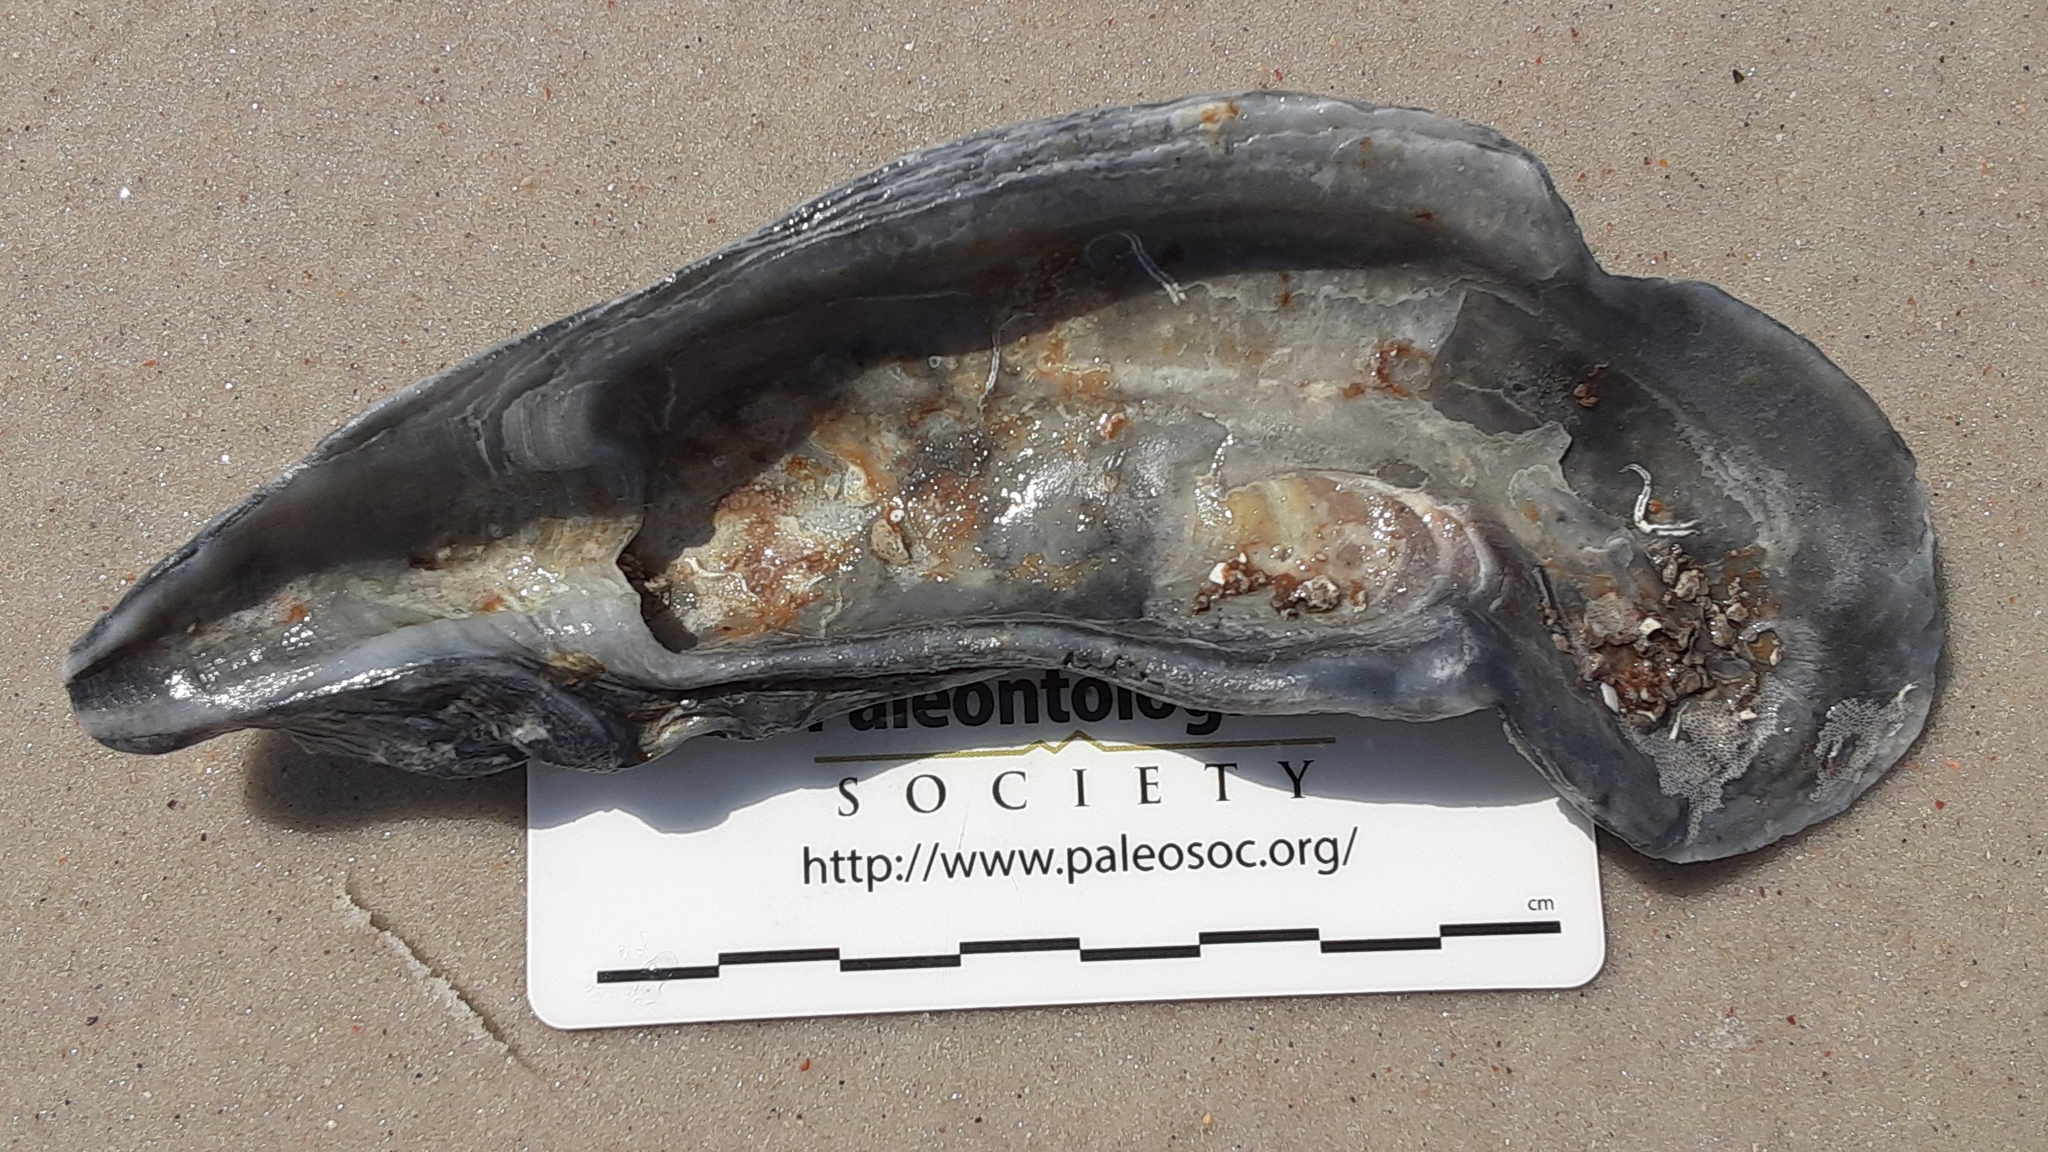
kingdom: Animalia
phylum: Mollusca
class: Bivalvia
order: Ostreida
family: Ostreidae
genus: Crassostrea
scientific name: Crassostrea virginica
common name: American oyster
